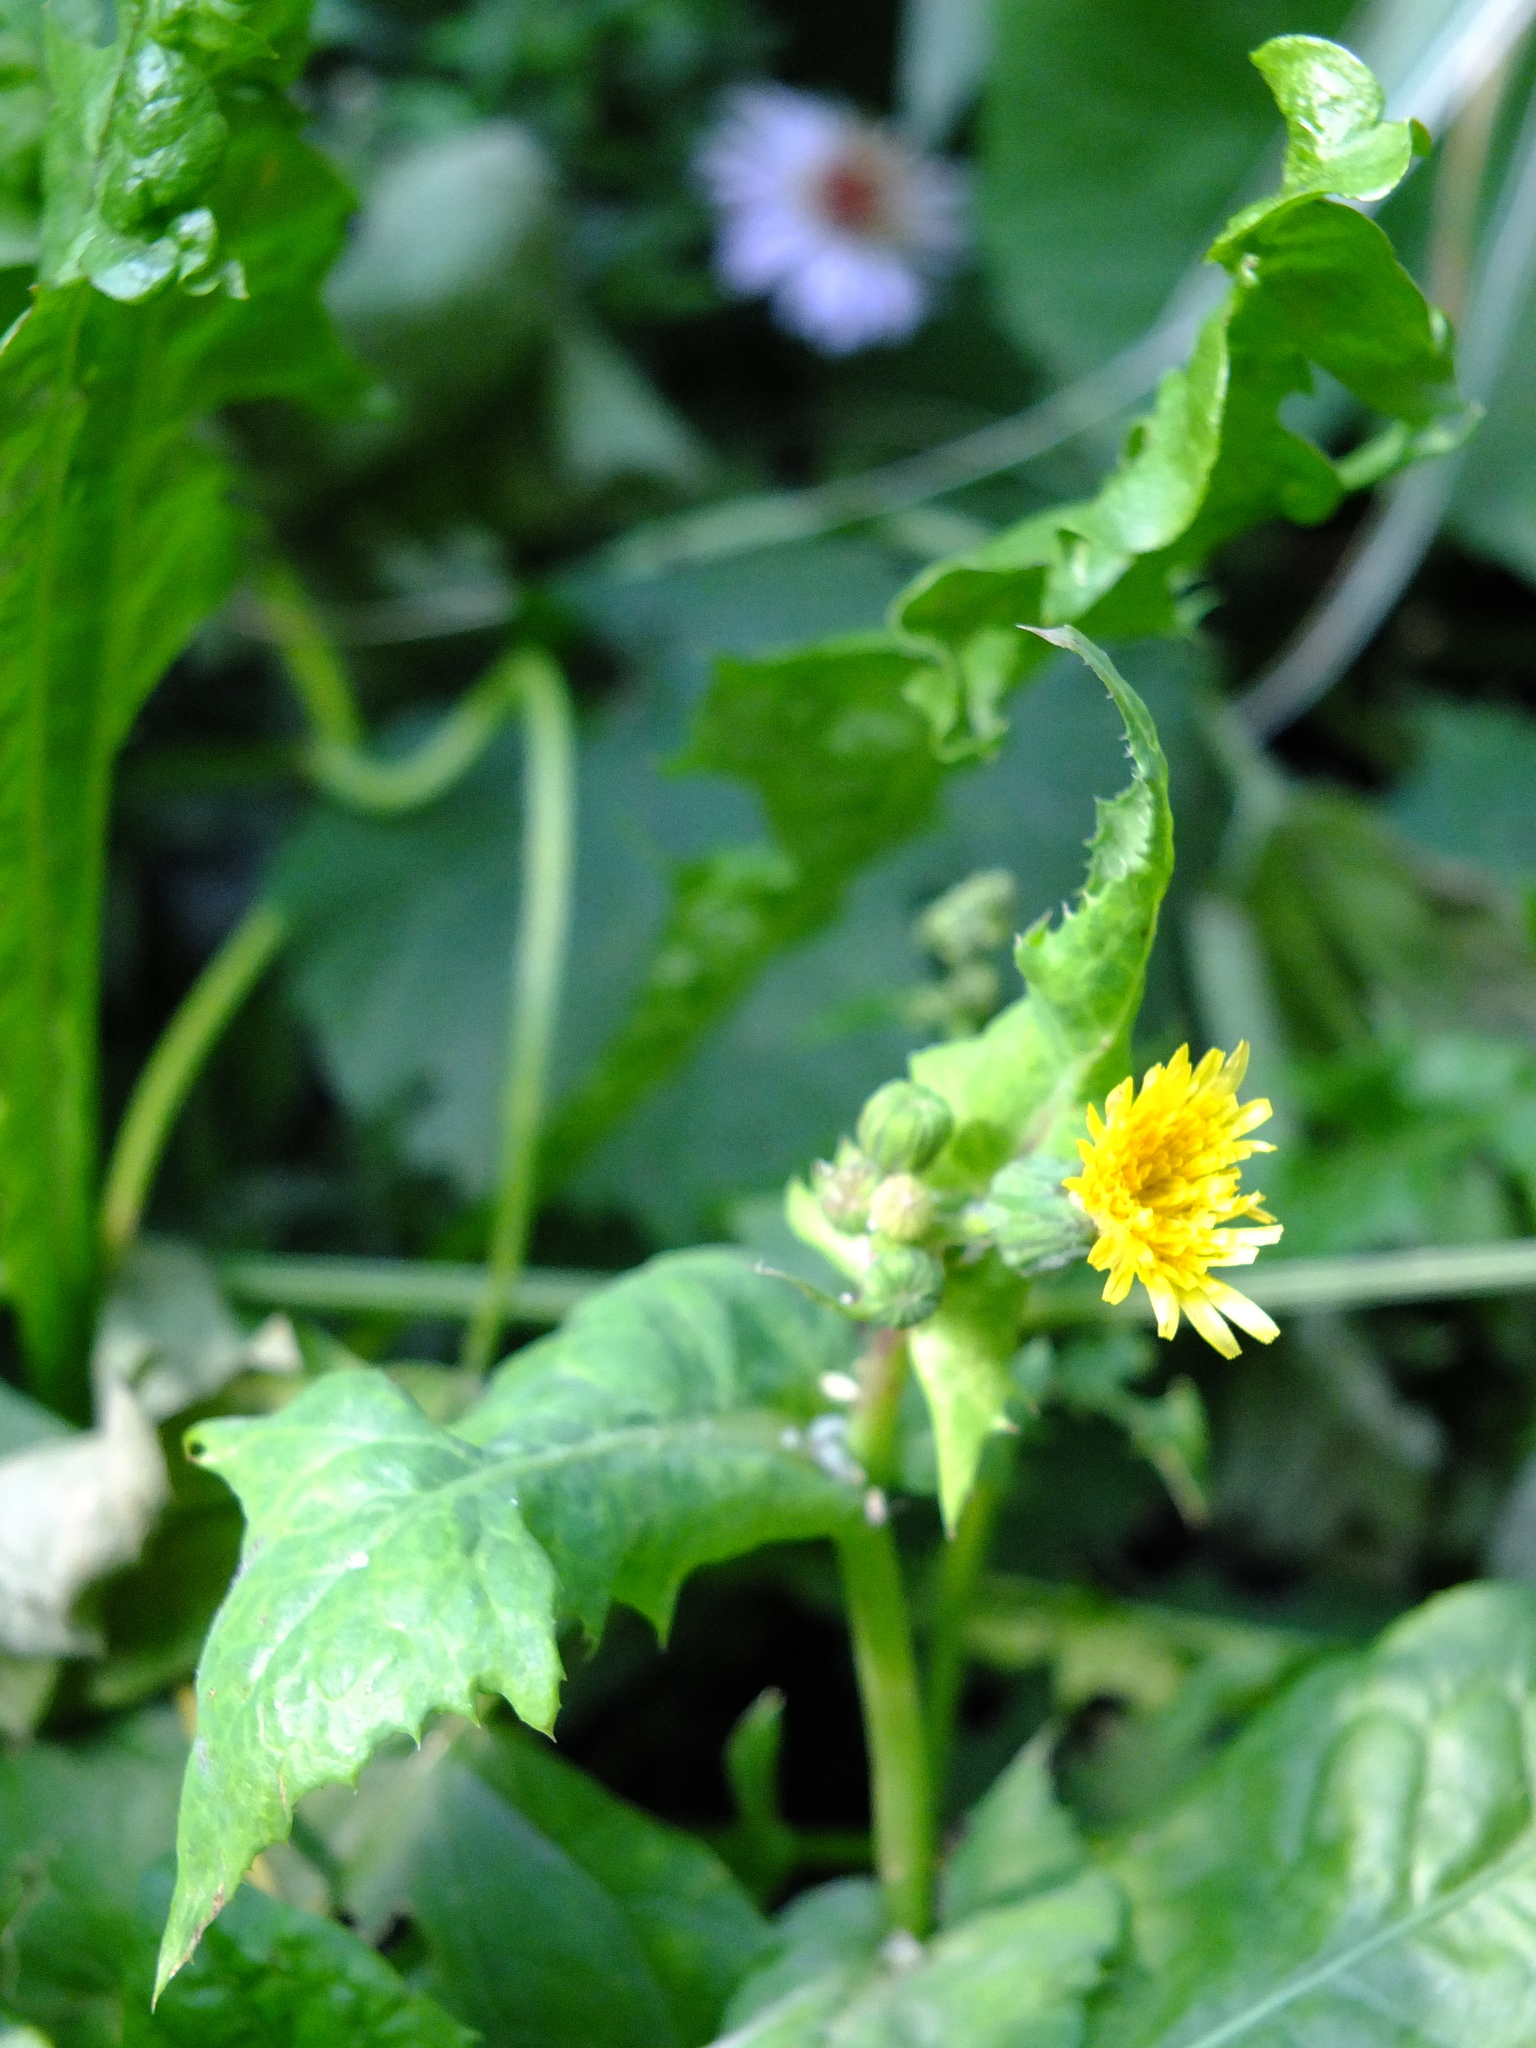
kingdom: Plantae
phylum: Tracheophyta
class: Magnoliopsida
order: Asterales
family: Asteraceae
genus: Sonchus
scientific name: Sonchus oleraceus
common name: Common sowthistle
